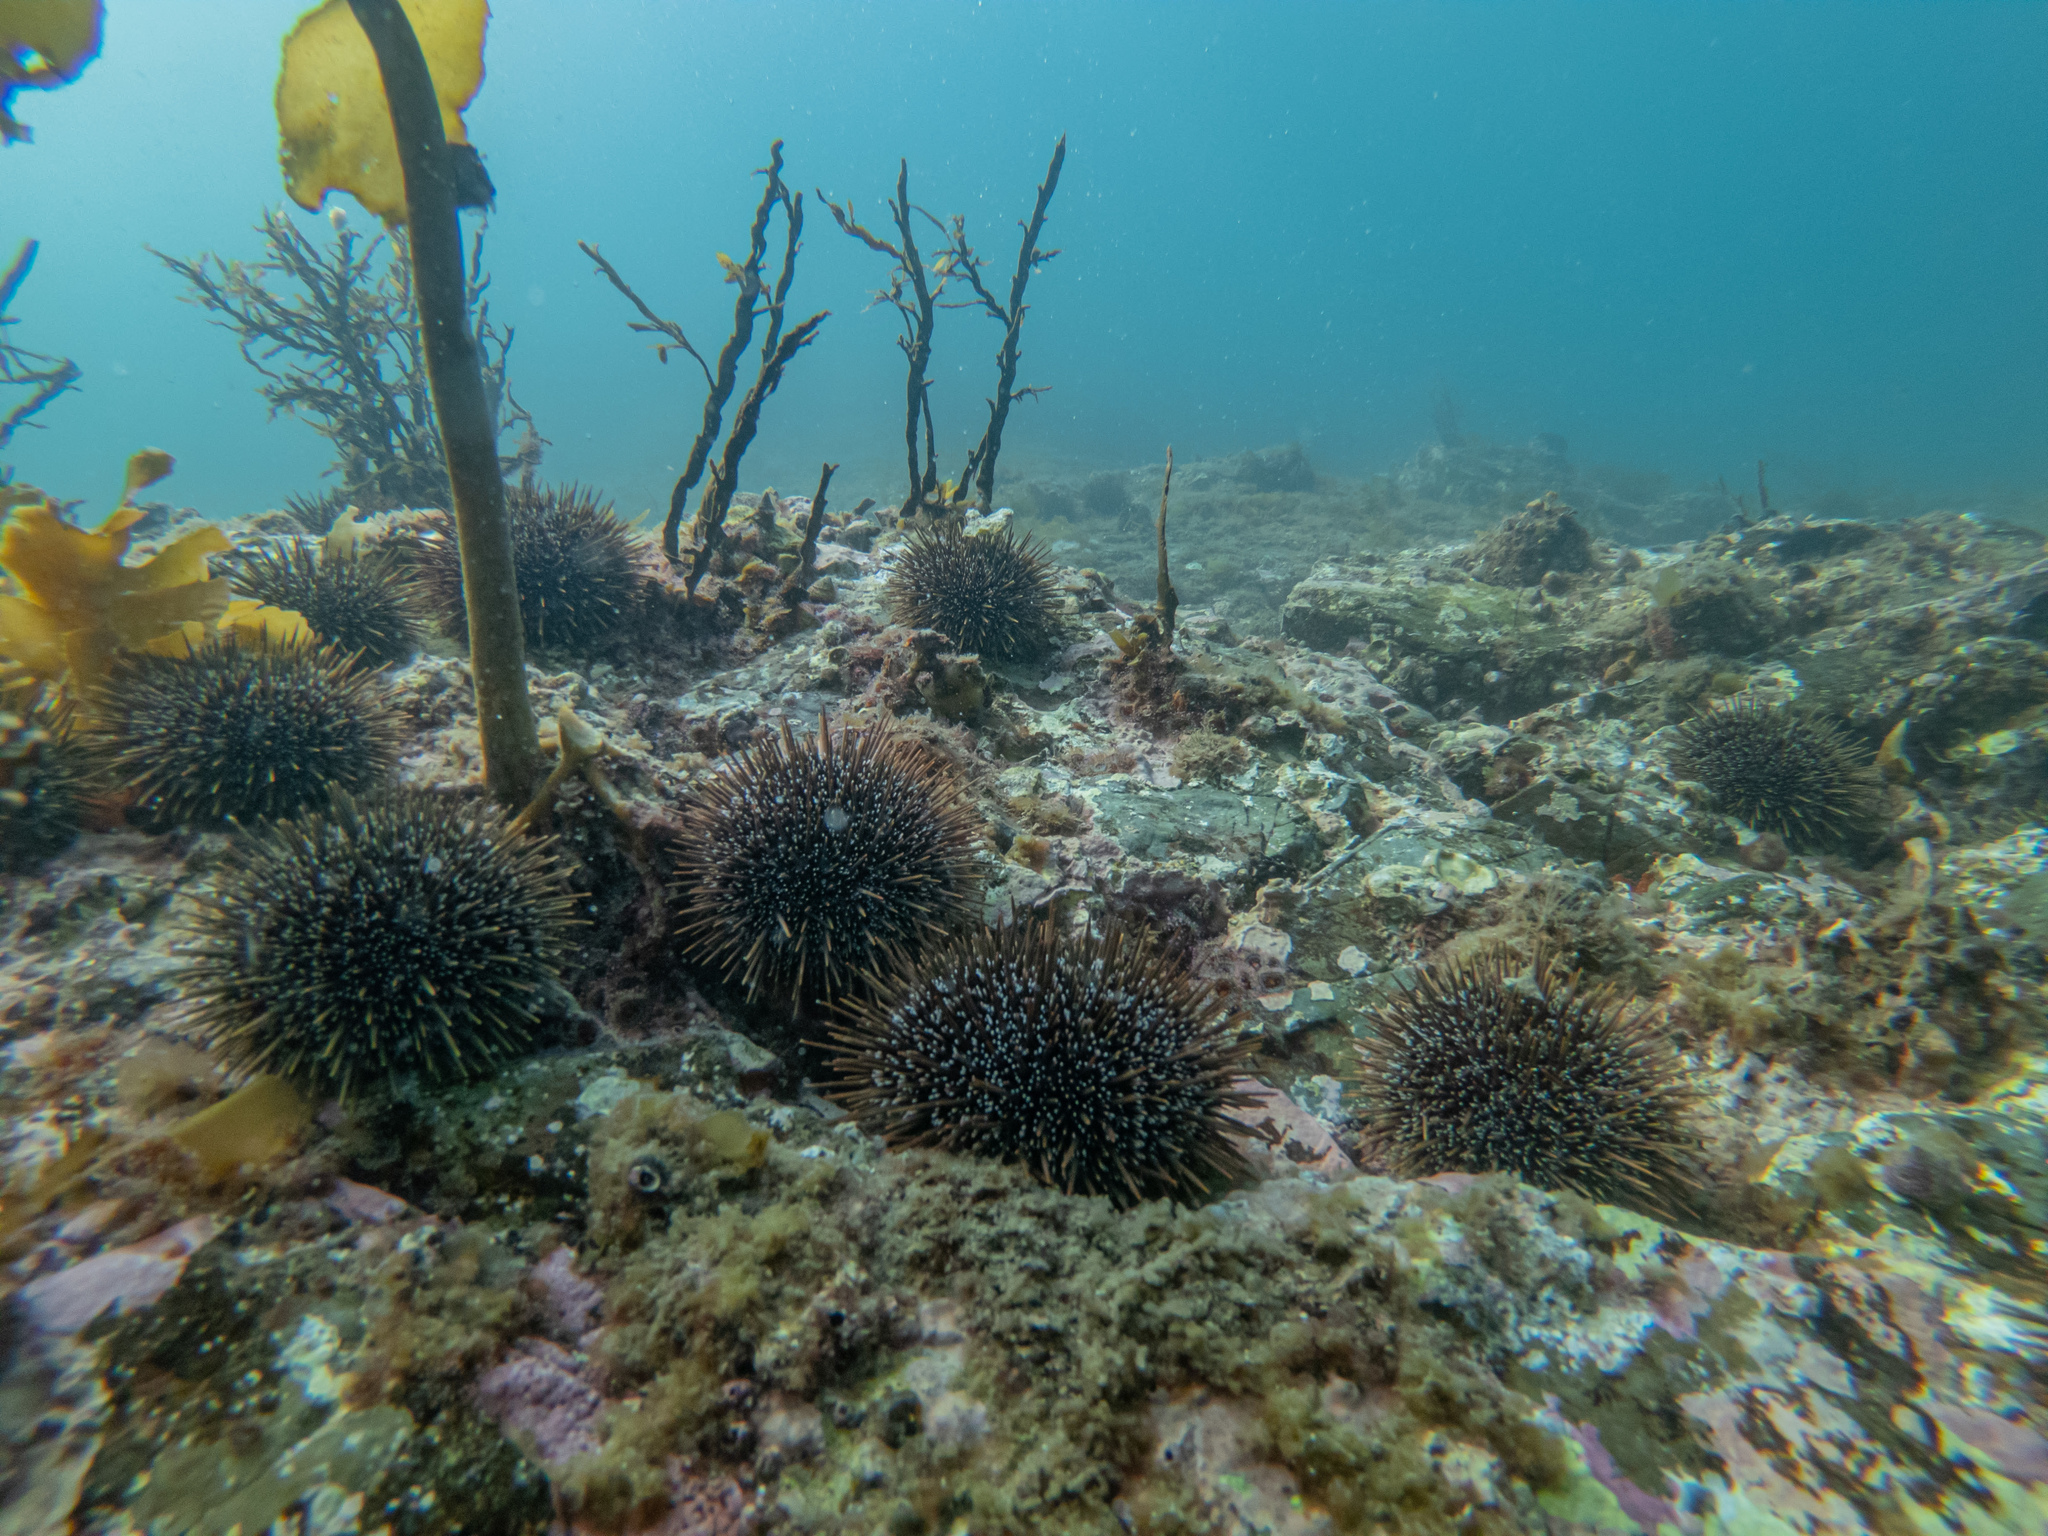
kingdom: Animalia
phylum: Echinodermata
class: Echinoidea
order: Camarodonta
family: Echinometridae
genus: Evechinus
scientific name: Evechinus chloroticus
